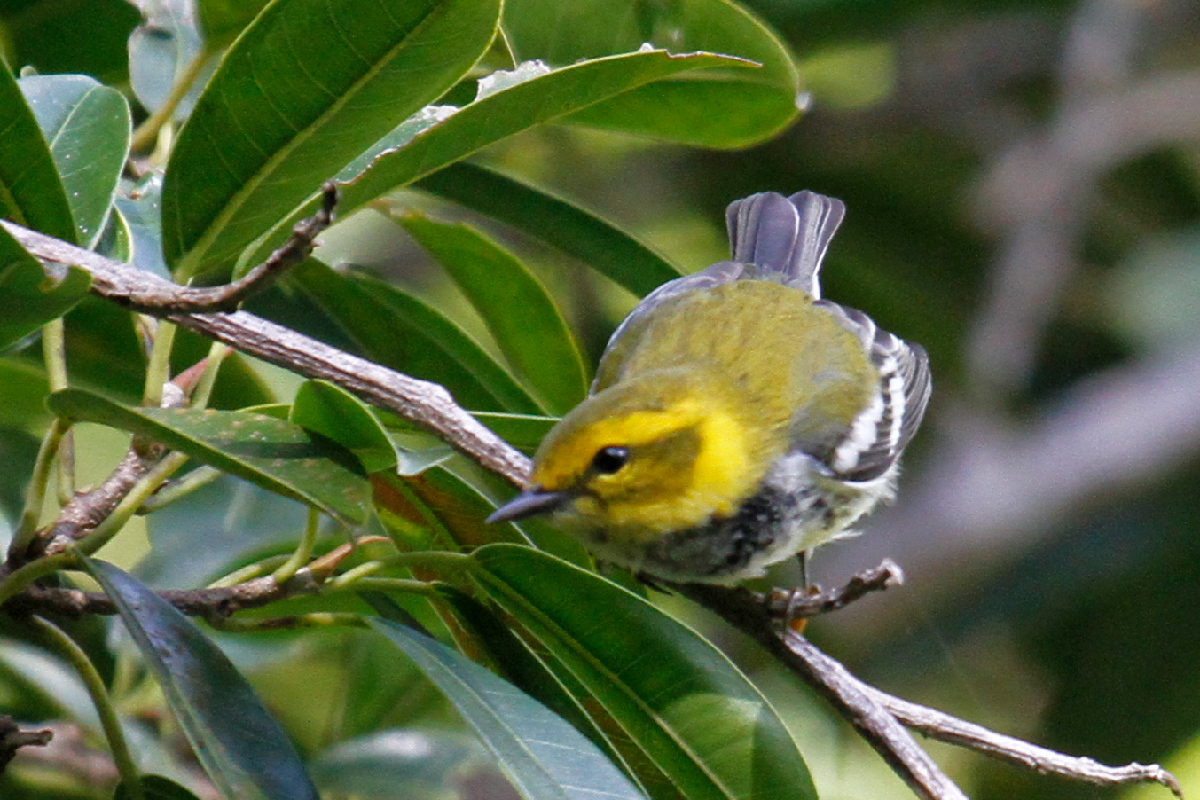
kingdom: Animalia
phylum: Chordata
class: Aves
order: Passeriformes
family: Parulidae
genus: Setophaga
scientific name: Setophaga virens
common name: Black-throated green warbler
